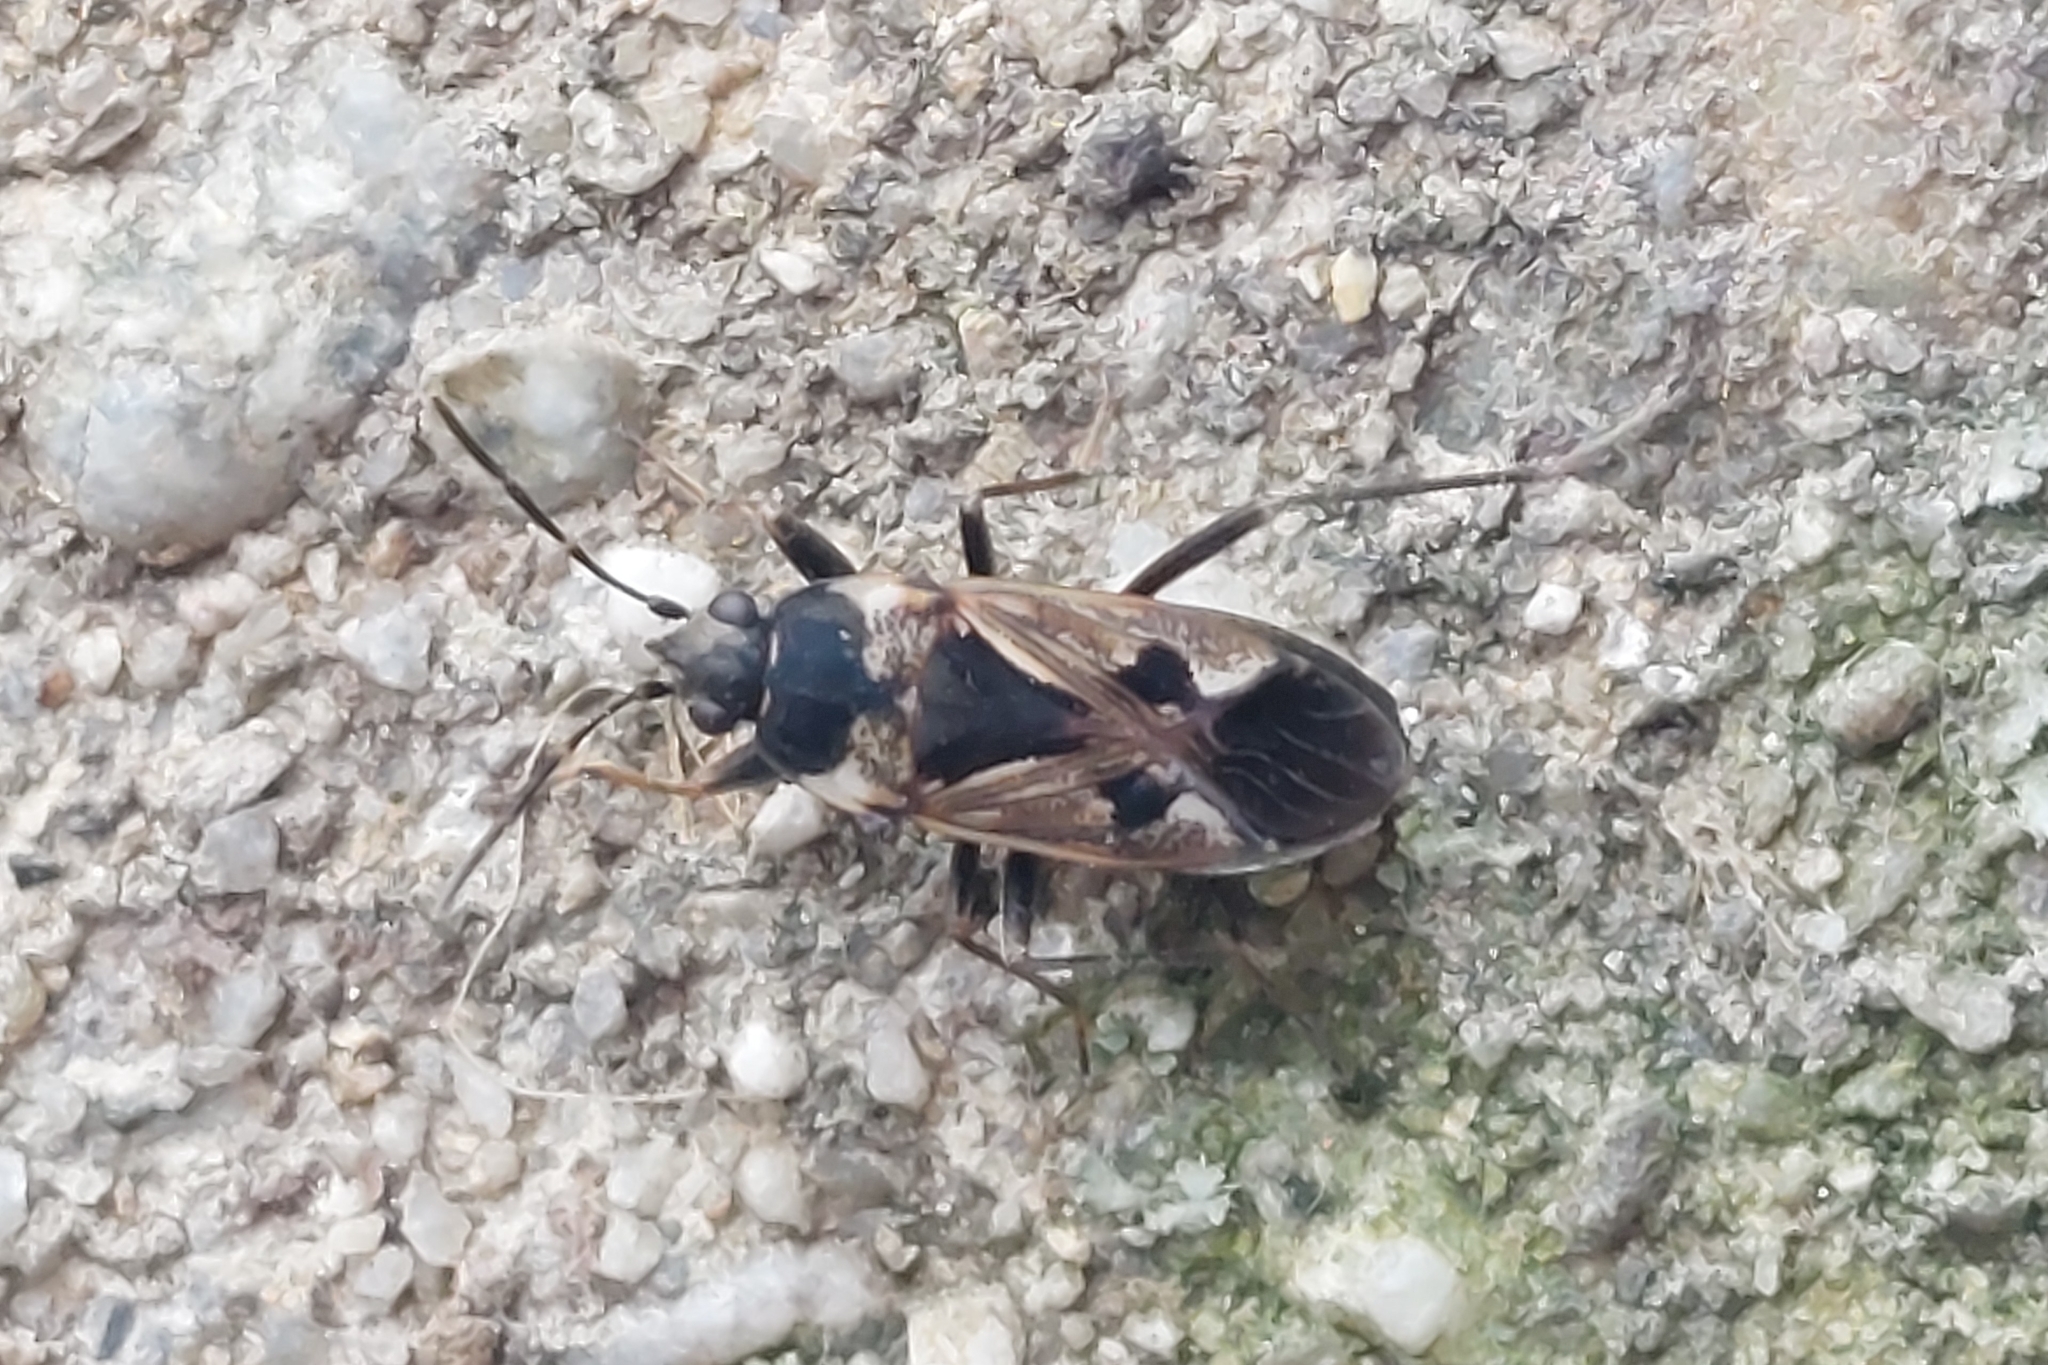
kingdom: Animalia
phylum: Arthropoda
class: Insecta
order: Hemiptera
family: Rhyparochromidae
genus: Rhyparochromus
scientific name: Rhyparochromus vulgaris
